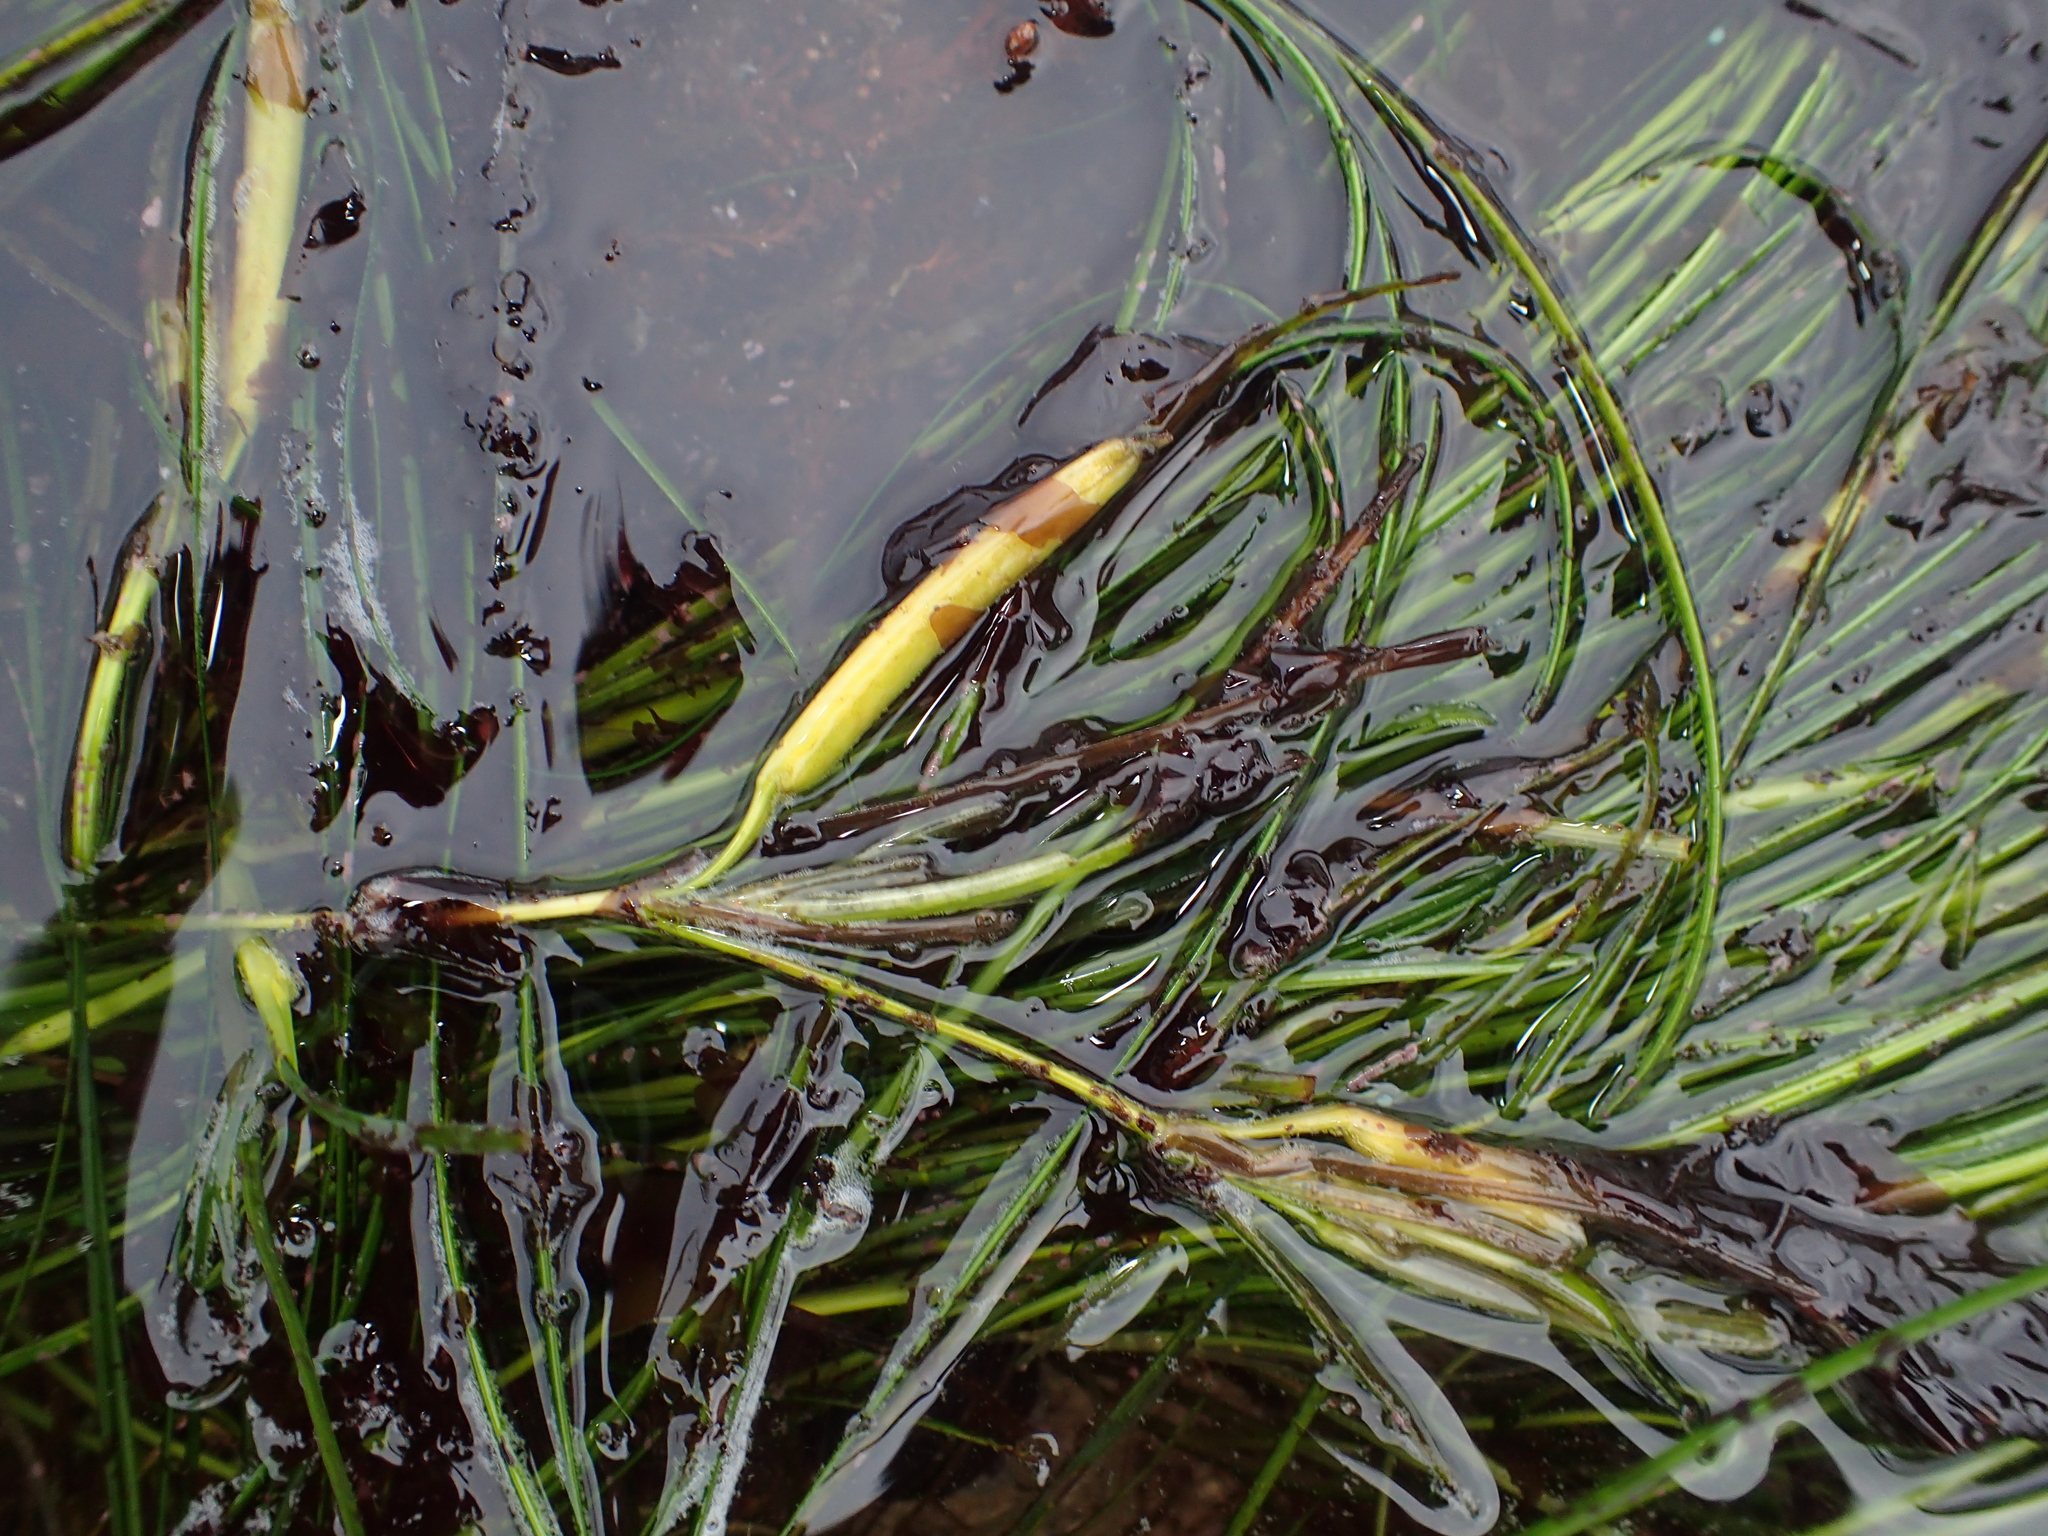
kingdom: Plantae
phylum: Tracheophyta
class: Liliopsida
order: Alismatales
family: Zosteraceae
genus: Phyllospadix
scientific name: Phyllospadix torreyi
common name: Surfgrass
